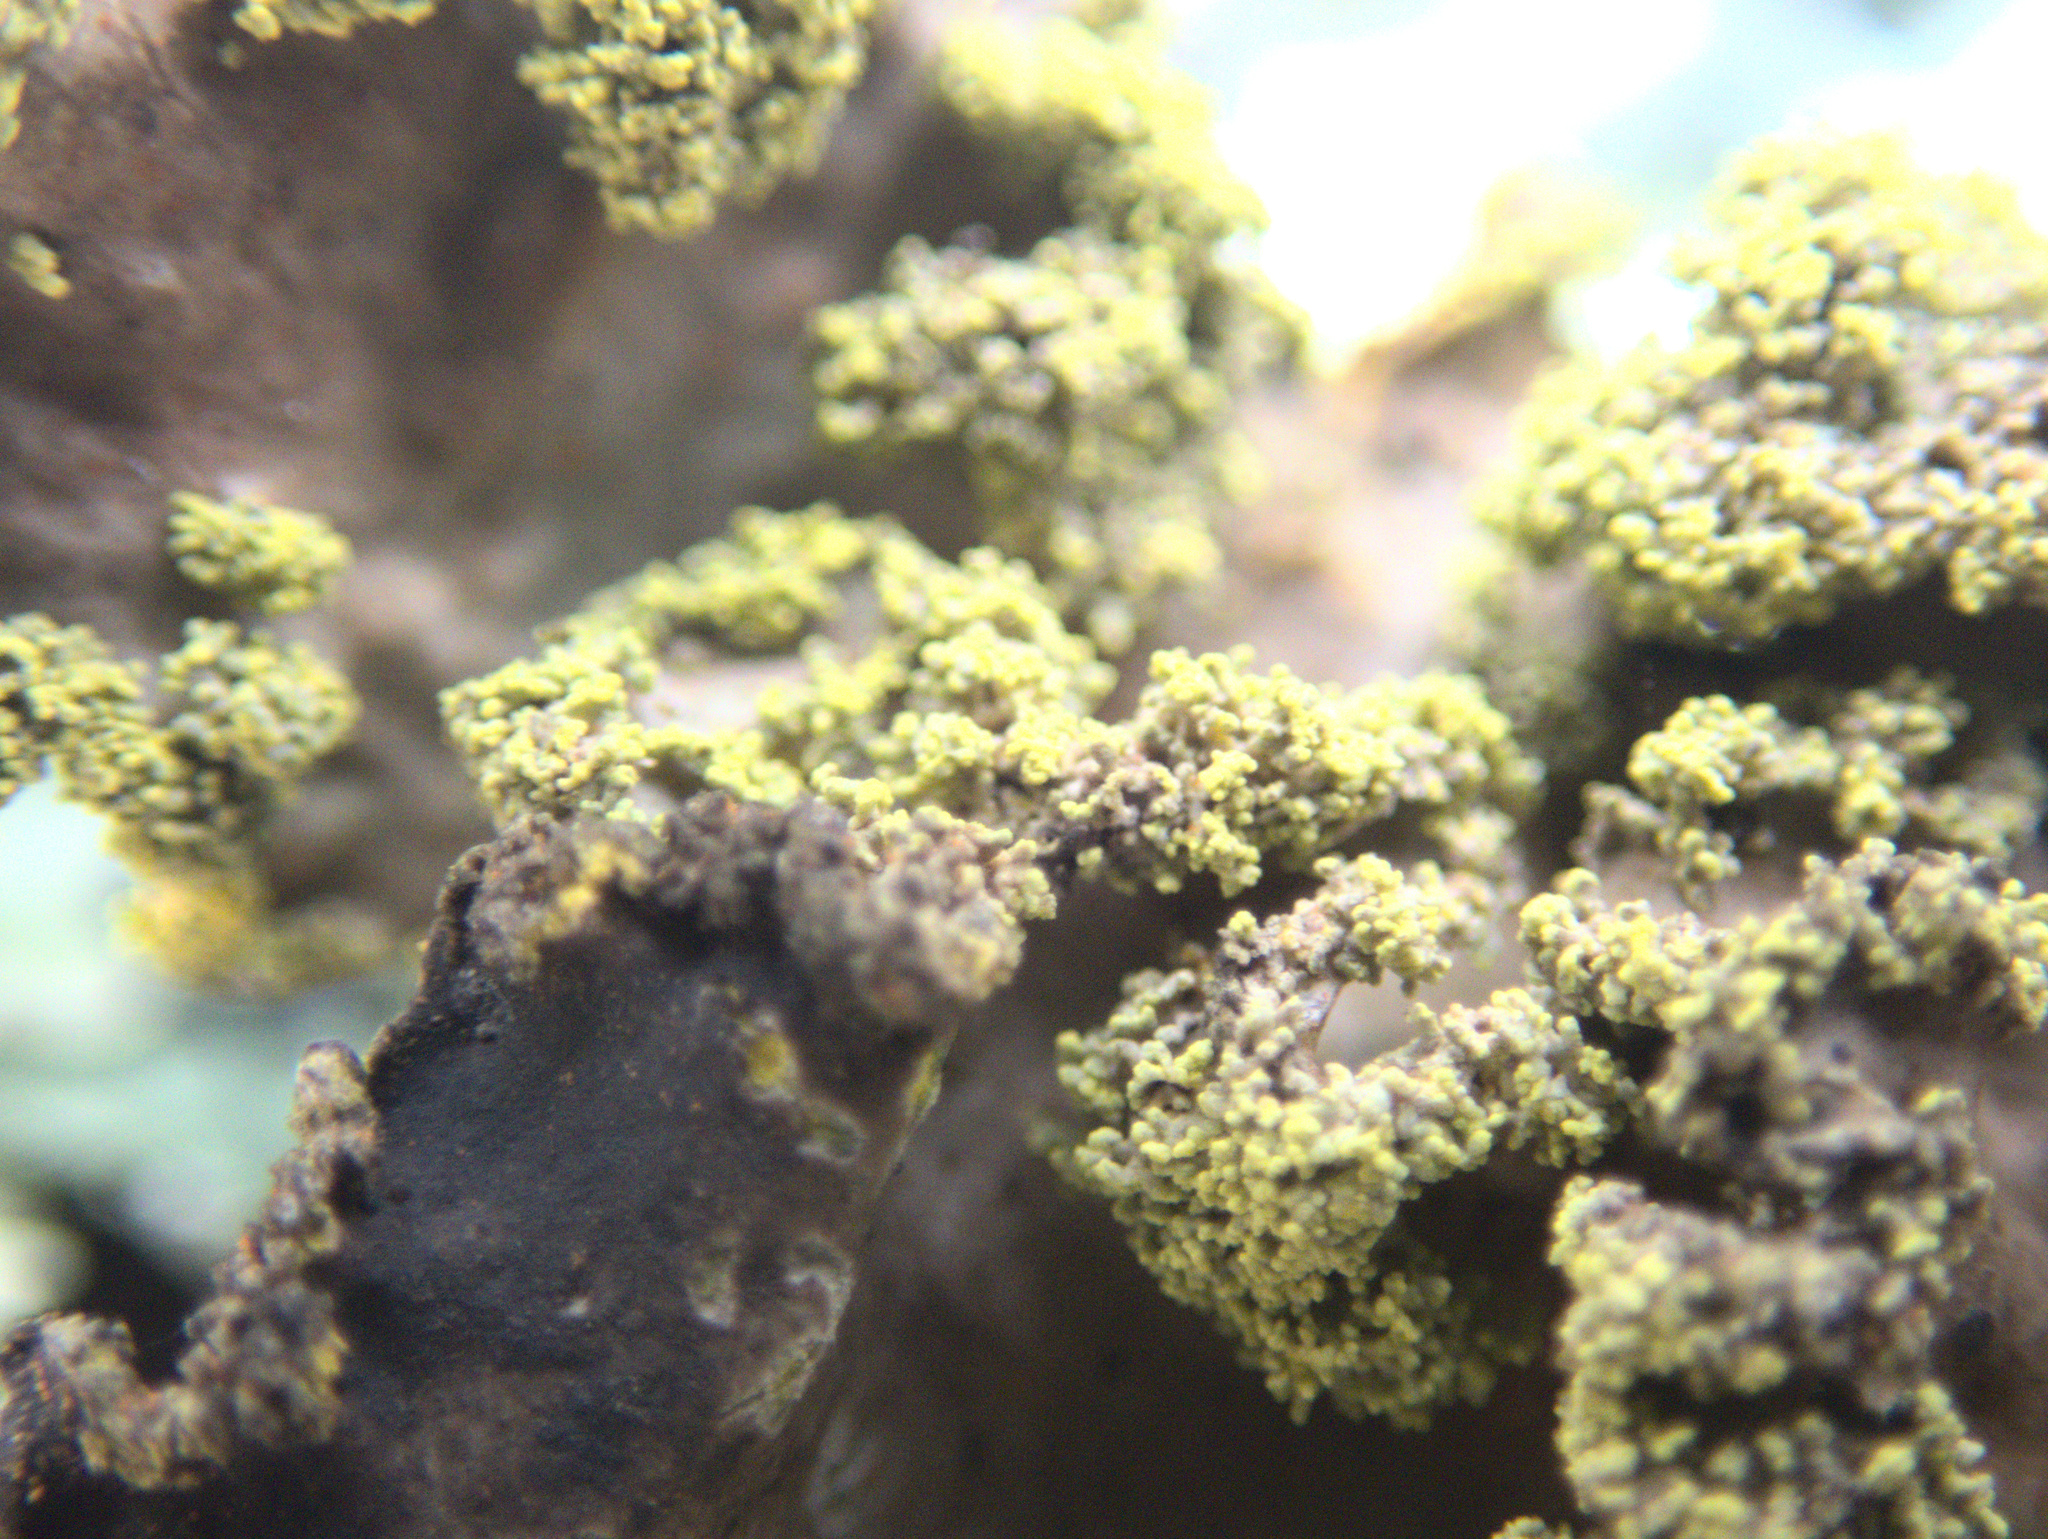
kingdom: Fungi
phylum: Ascomycota
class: Lecanoromycetes
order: Peltigerales
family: Lobariaceae
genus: Crocodia
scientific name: Crocodia poculifera
